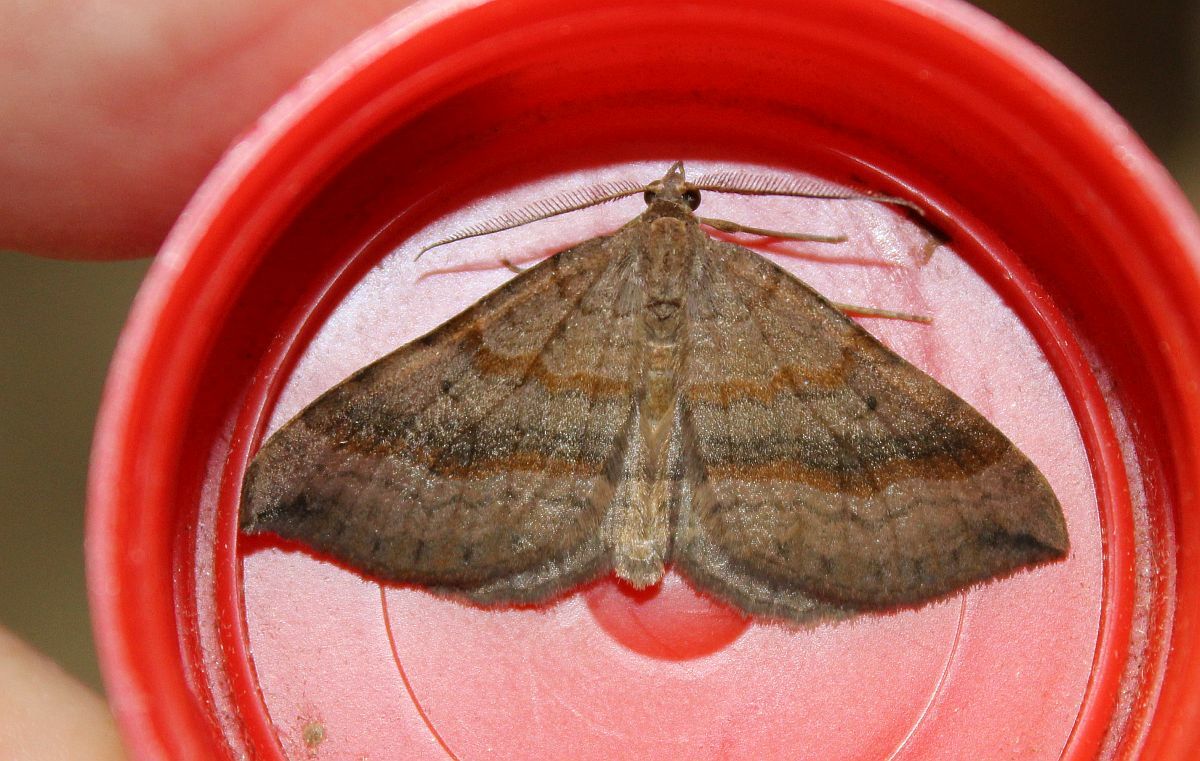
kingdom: Animalia
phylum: Arthropoda
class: Insecta
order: Lepidoptera
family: Geometridae
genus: Scotopteryx
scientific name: Scotopteryx chenopodiata
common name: Shaded broad-bar
